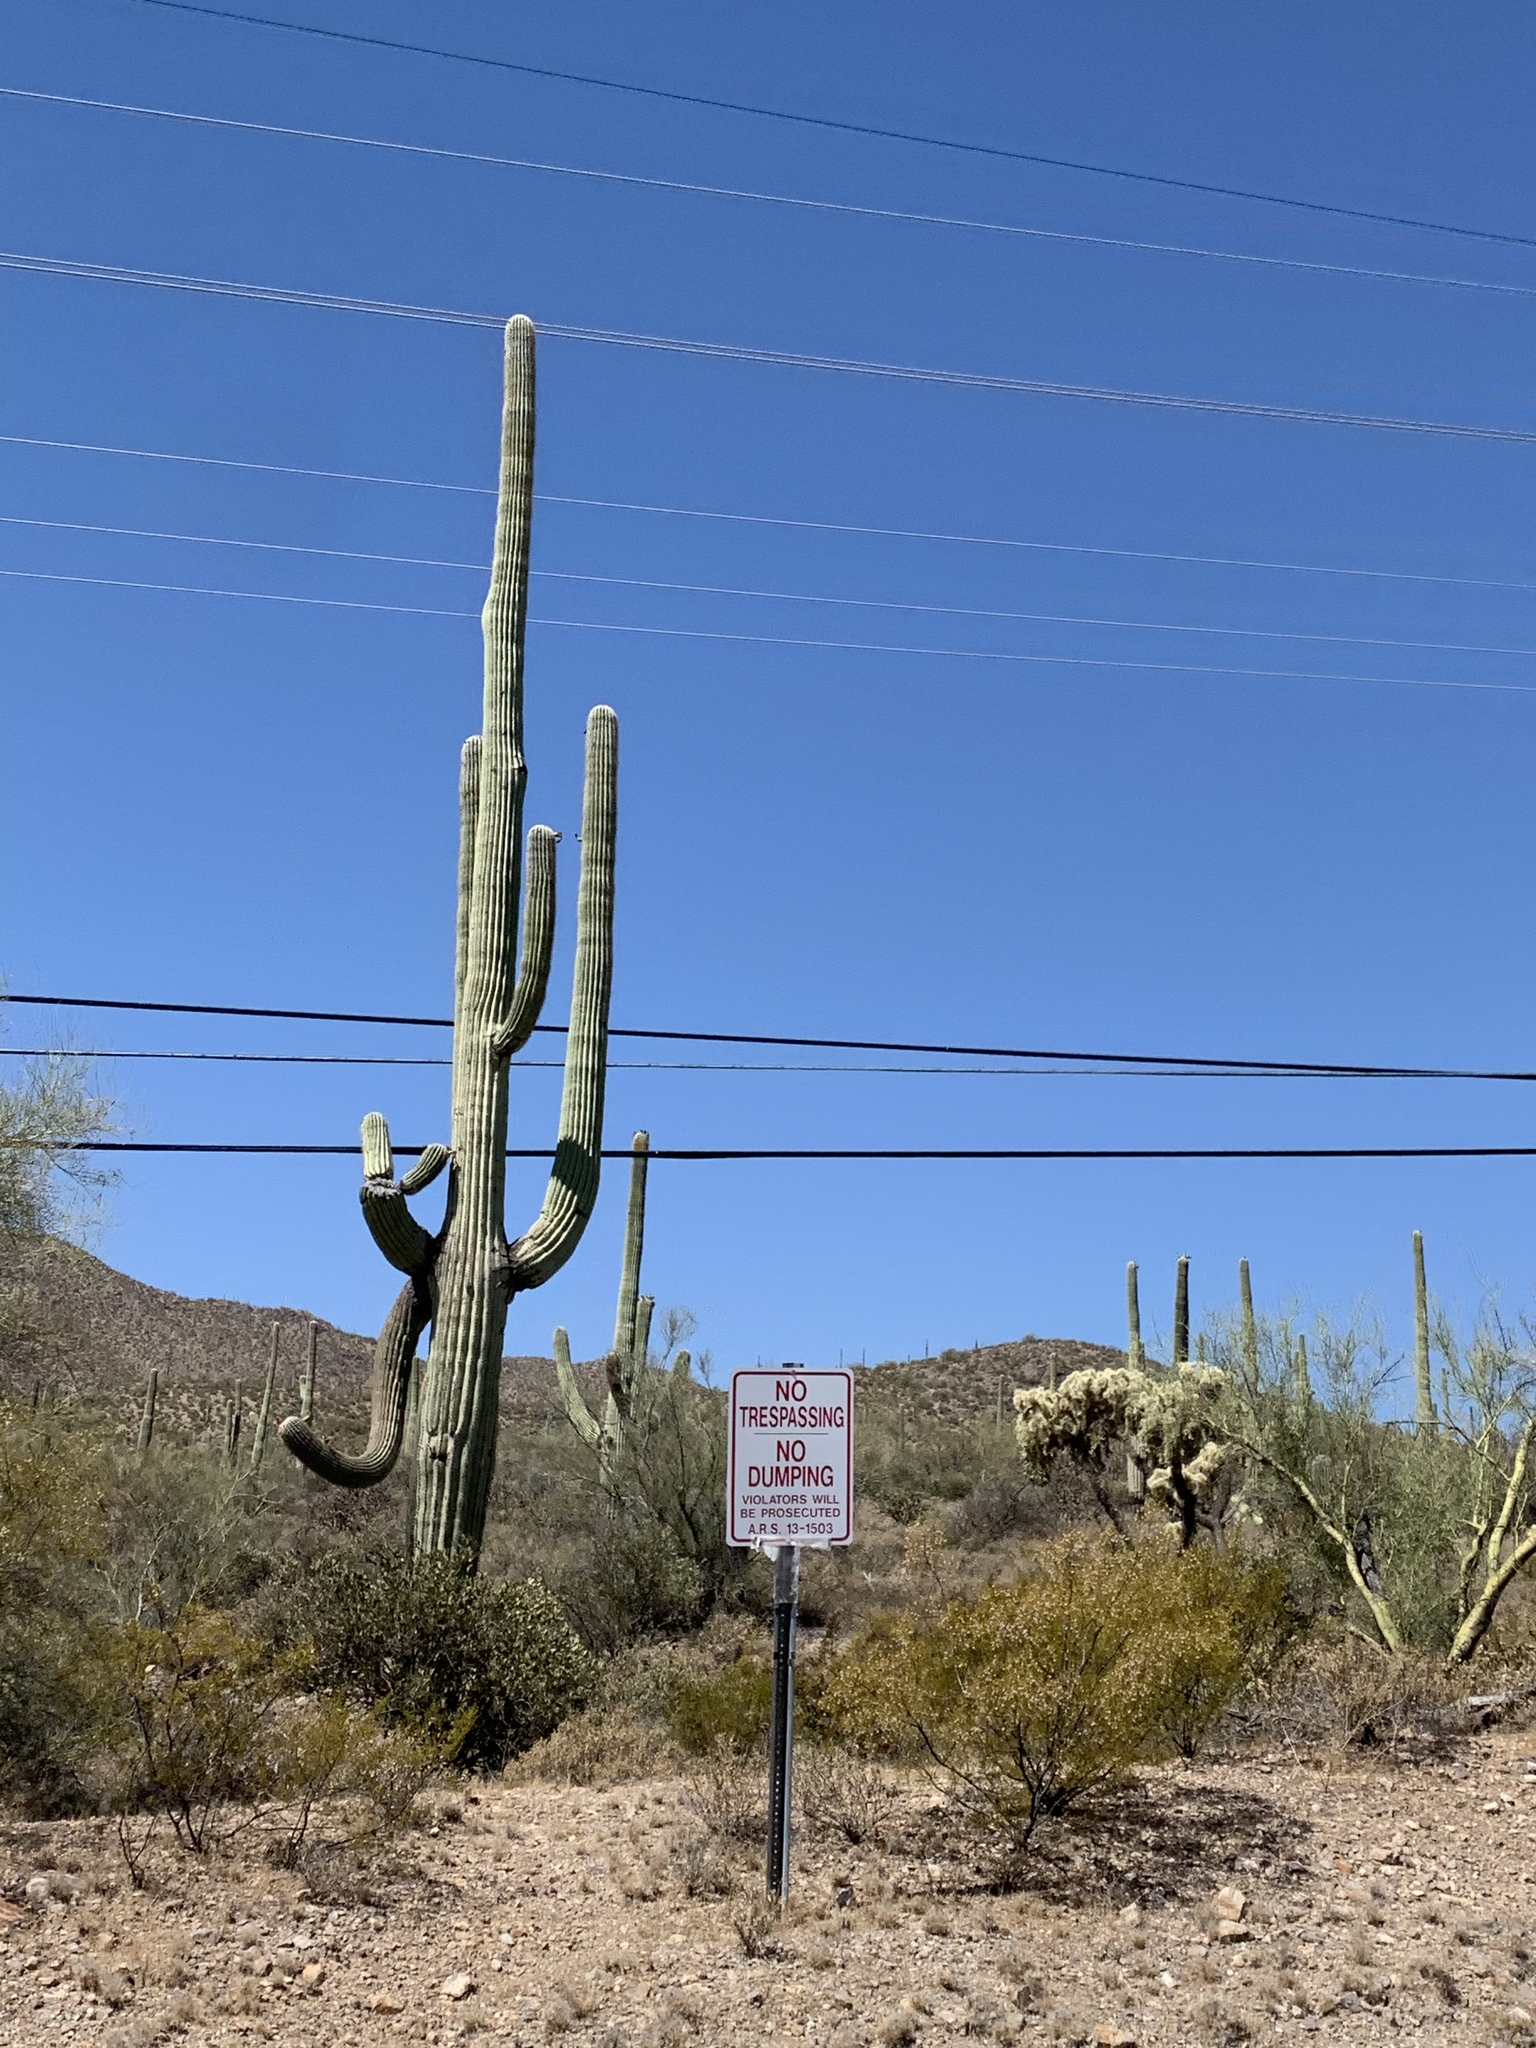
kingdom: Plantae
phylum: Tracheophyta
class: Magnoliopsida
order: Caryophyllales
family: Cactaceae
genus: Carnegiea
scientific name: Carnegiea gigantea
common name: Saguaro
